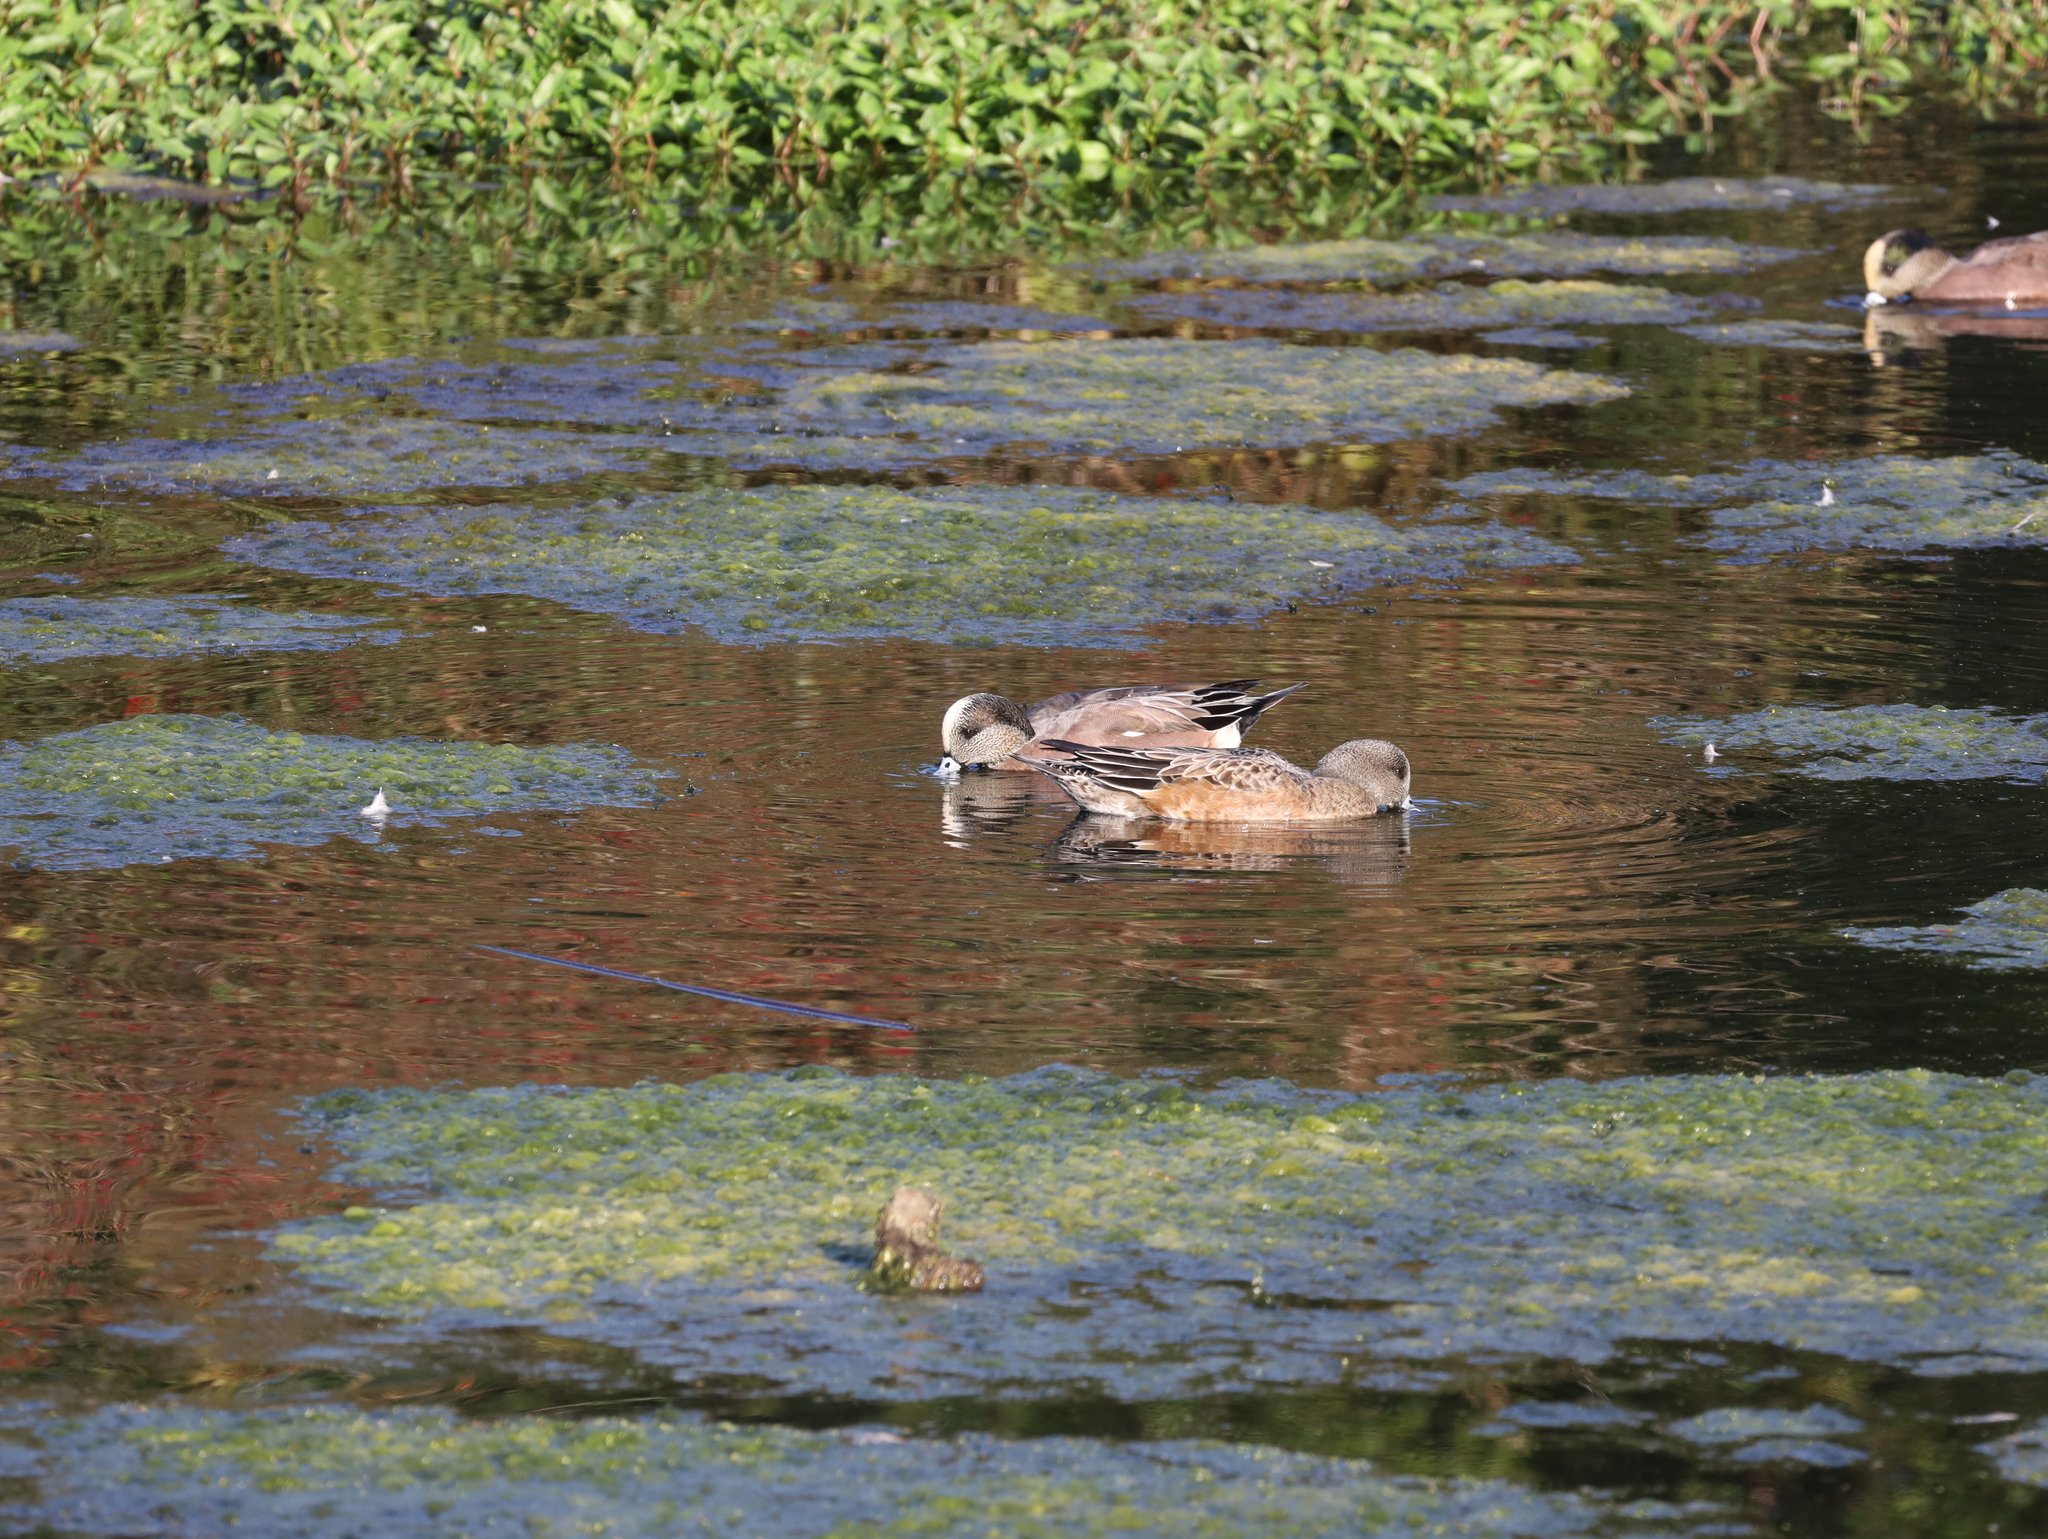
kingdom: Animalia
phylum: Chordata
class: Aves
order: Anseriformes
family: Anatidae
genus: Mareca
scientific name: Mareca americana
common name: American wigeon
